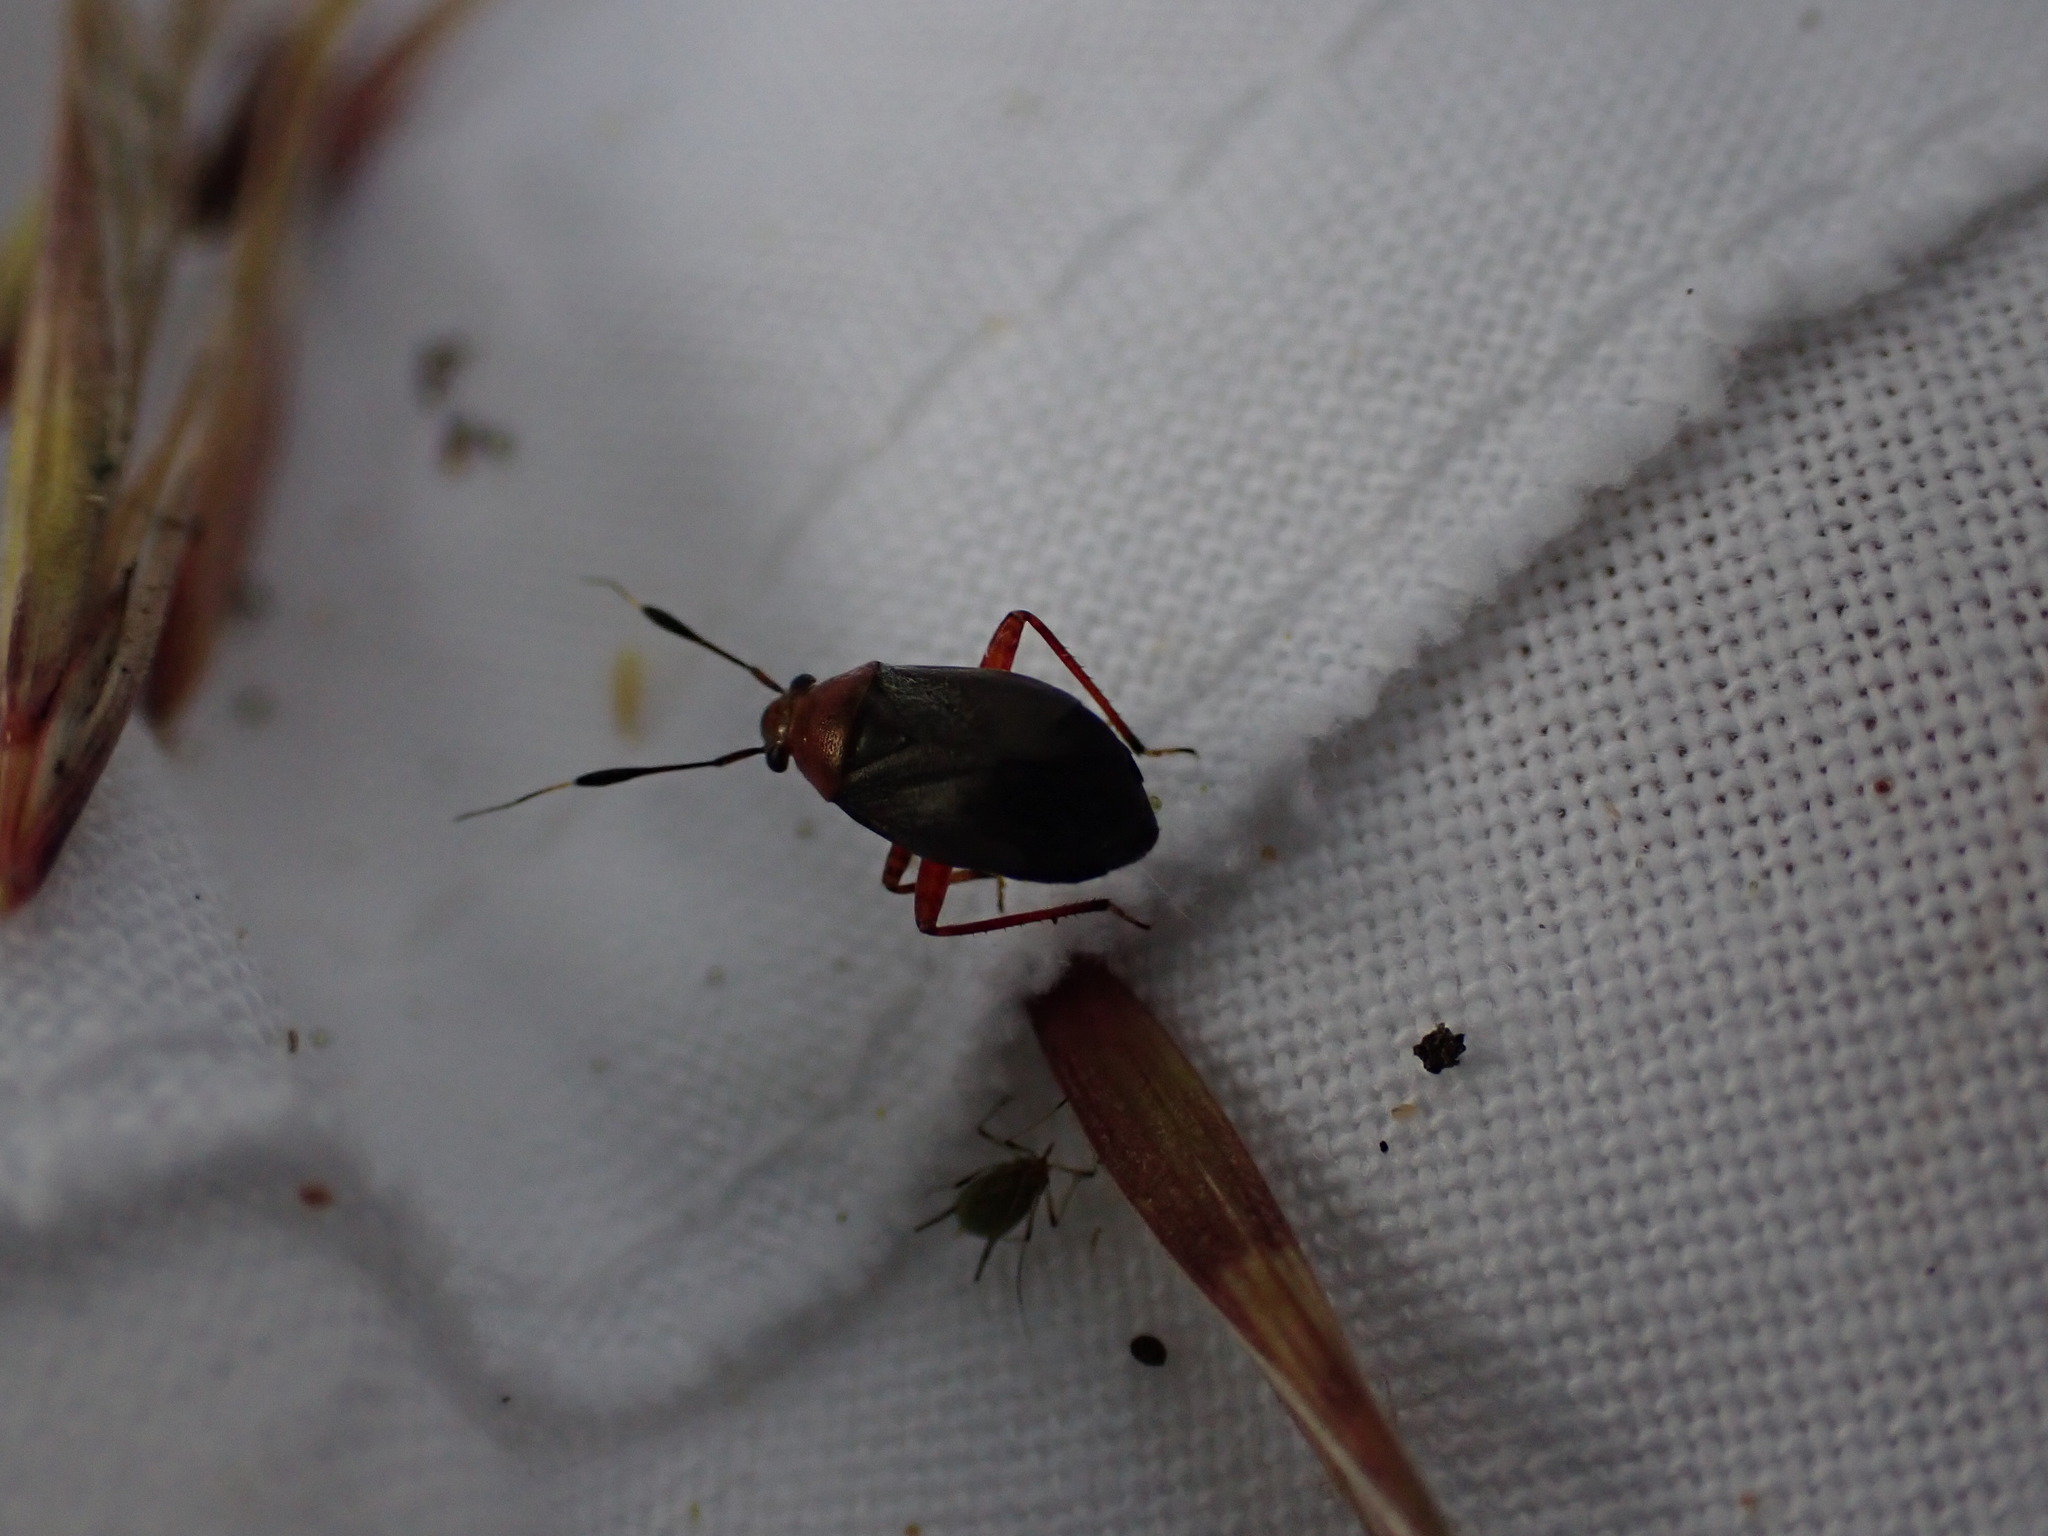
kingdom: Animalia
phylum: Arthropoda
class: Insecta
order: Hemiptera
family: Miridae
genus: Capsus
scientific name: Capsus ater
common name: Black plant bug
